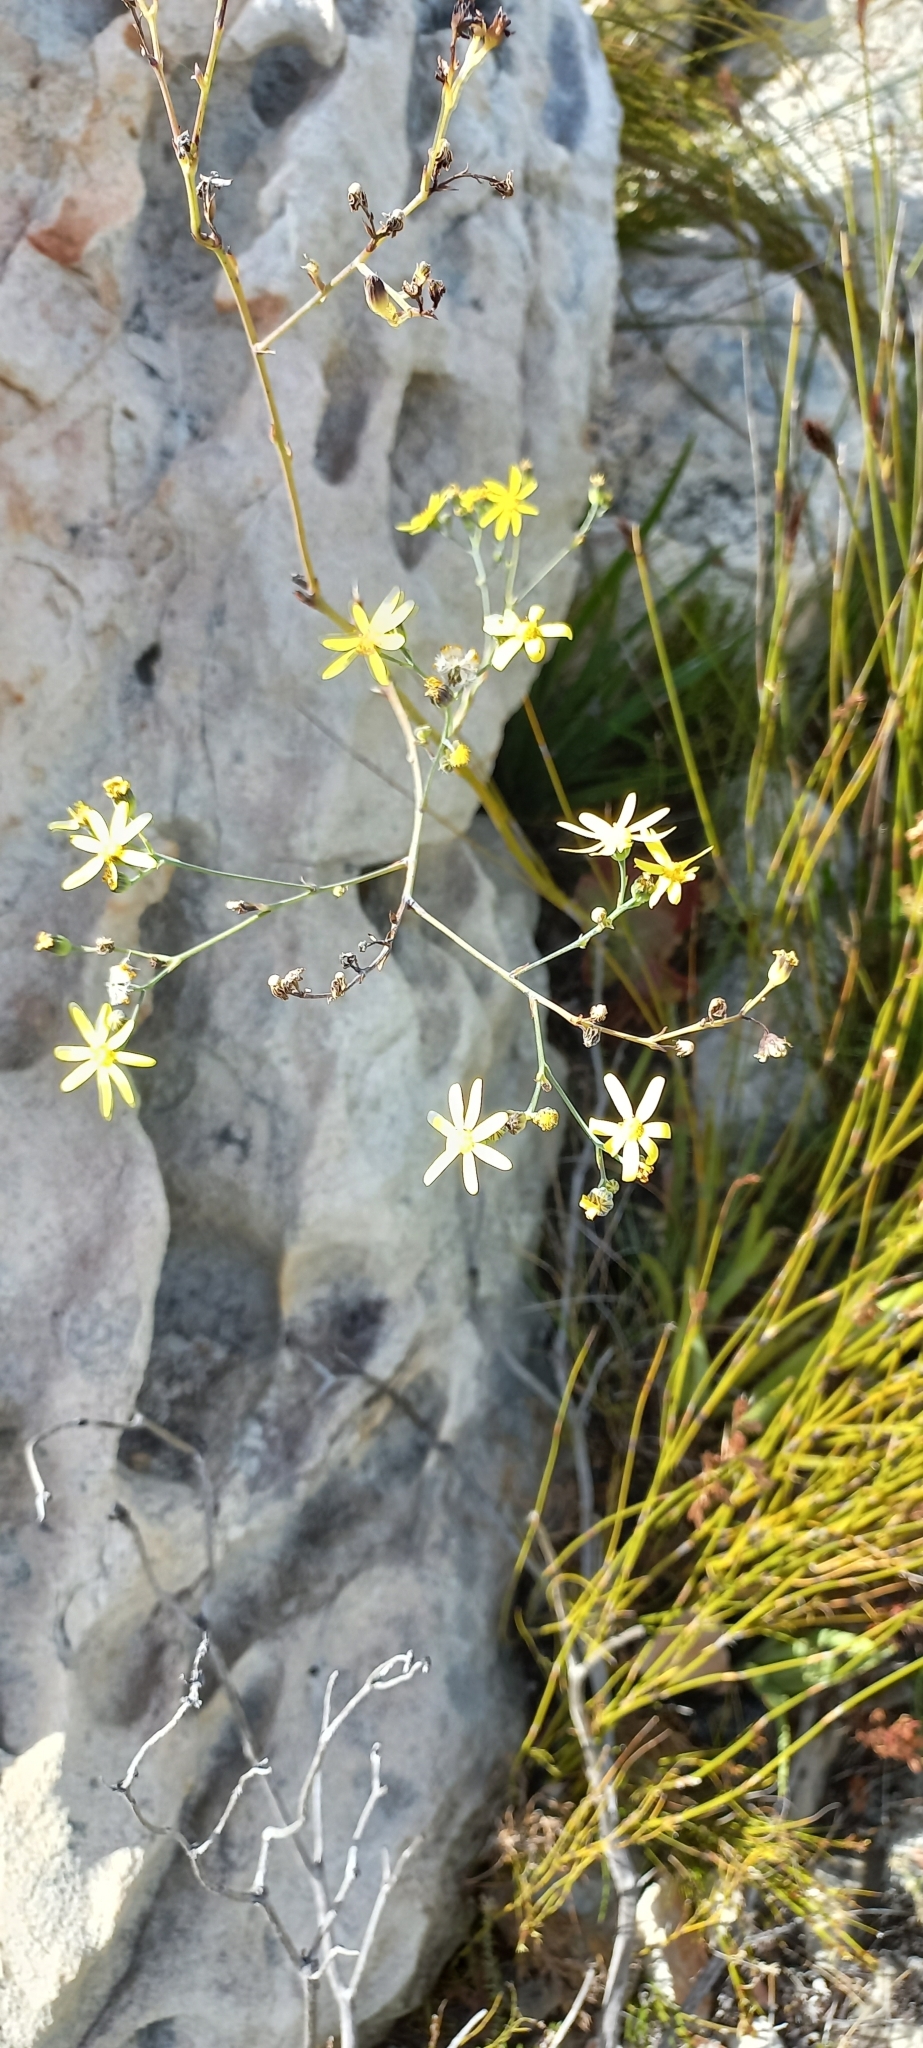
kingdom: Plantae
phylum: Tracheophyta
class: Magnoliopsida
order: Asterales
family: Asteraceae
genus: Othonna
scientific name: Othonna quinquedentata
